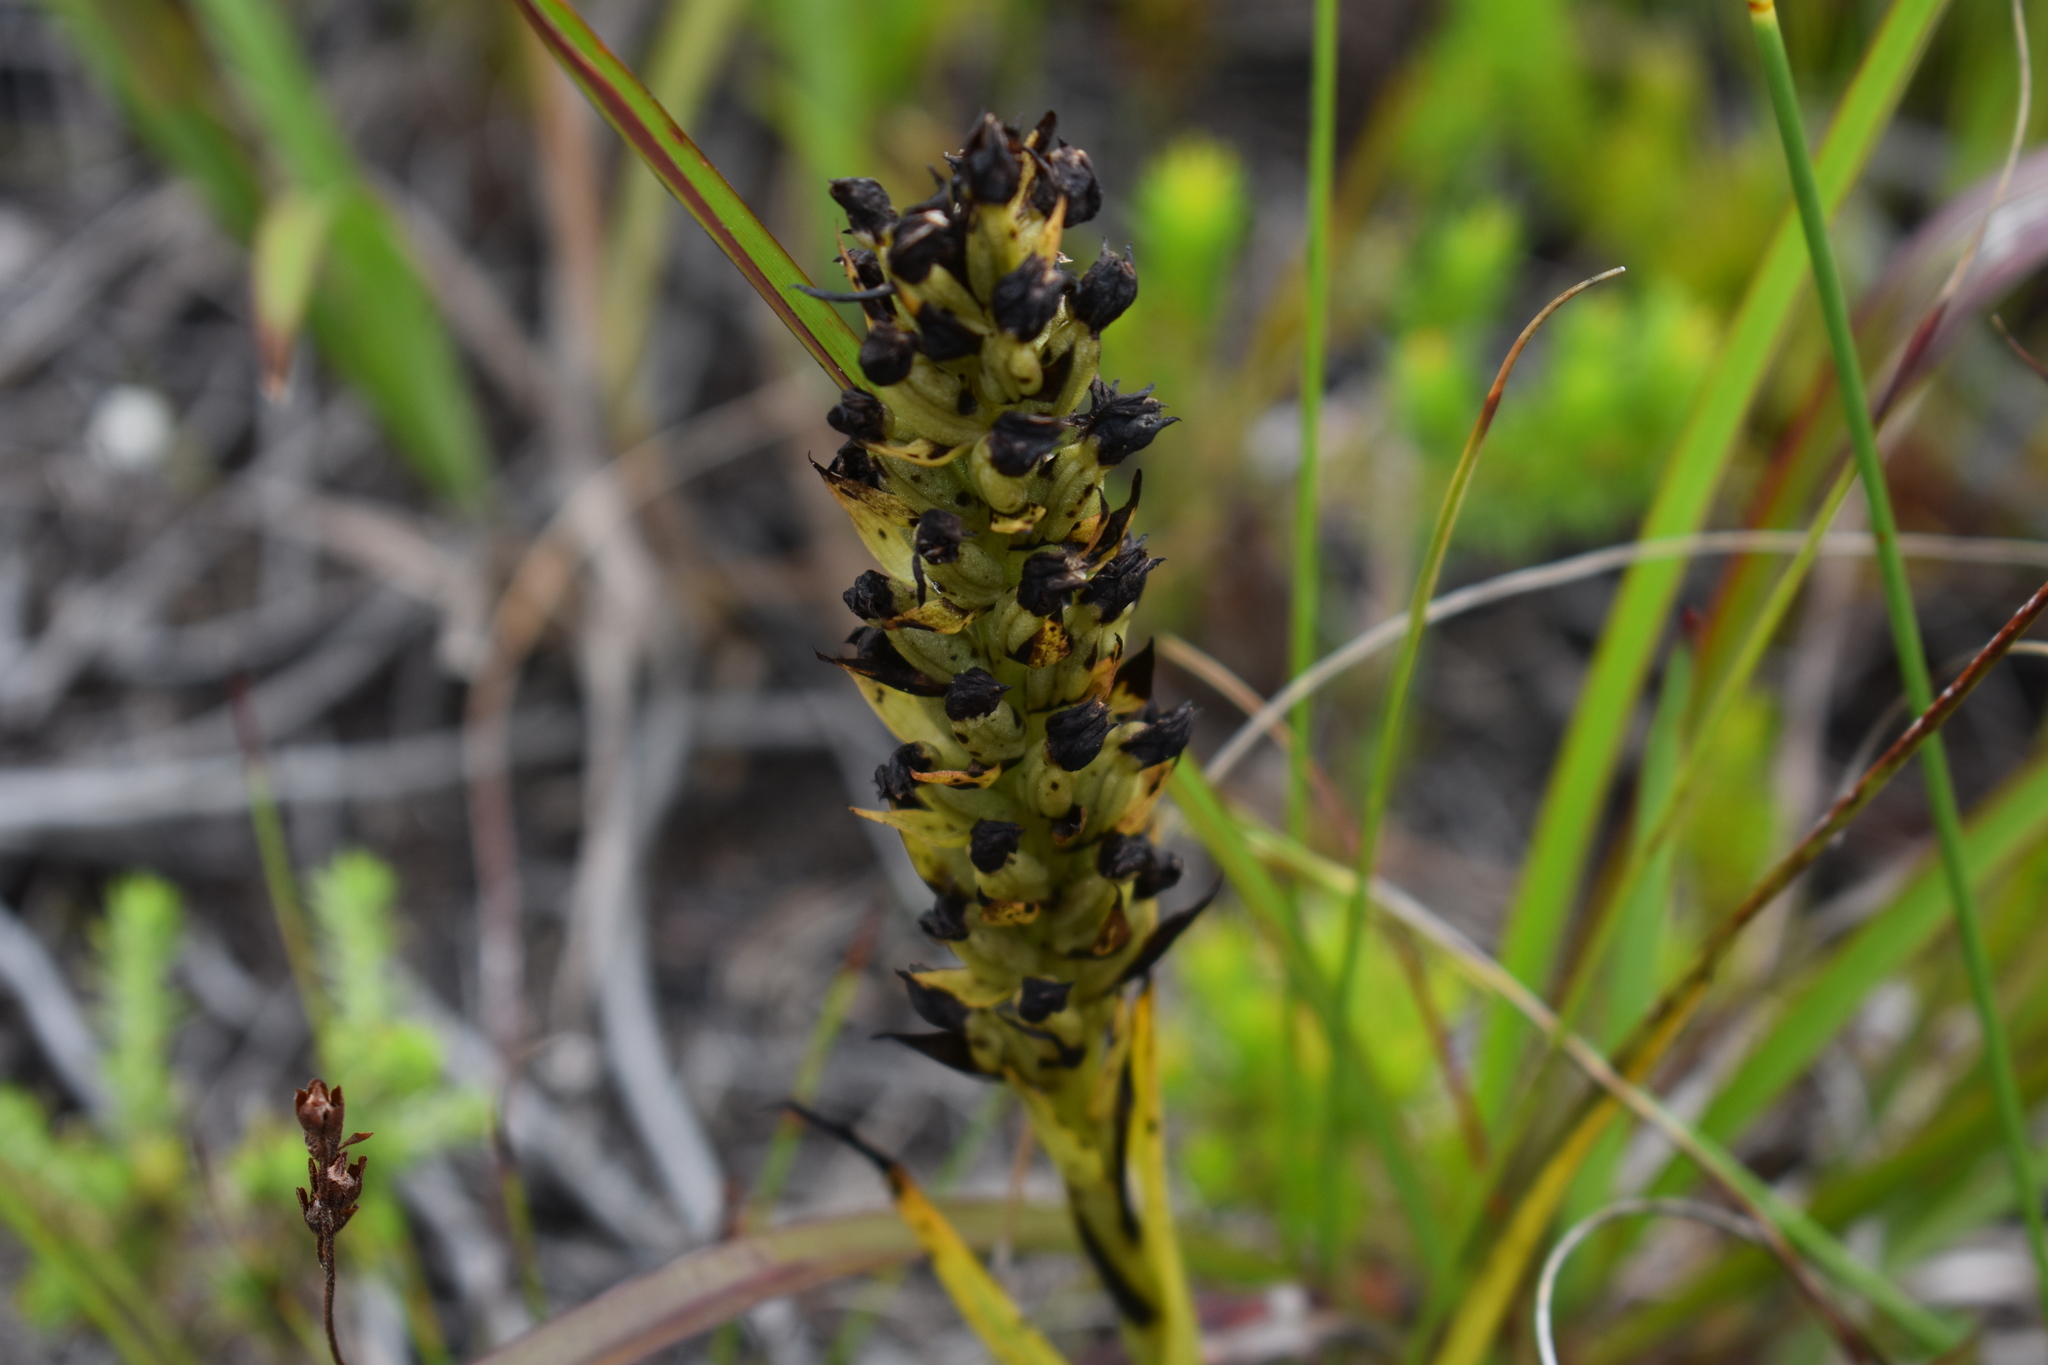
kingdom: Plantae
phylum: Tracheophyta
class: Liliopsida
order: Asparagales
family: Orchidaceae
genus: Evotella
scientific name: Evotella carnosa
